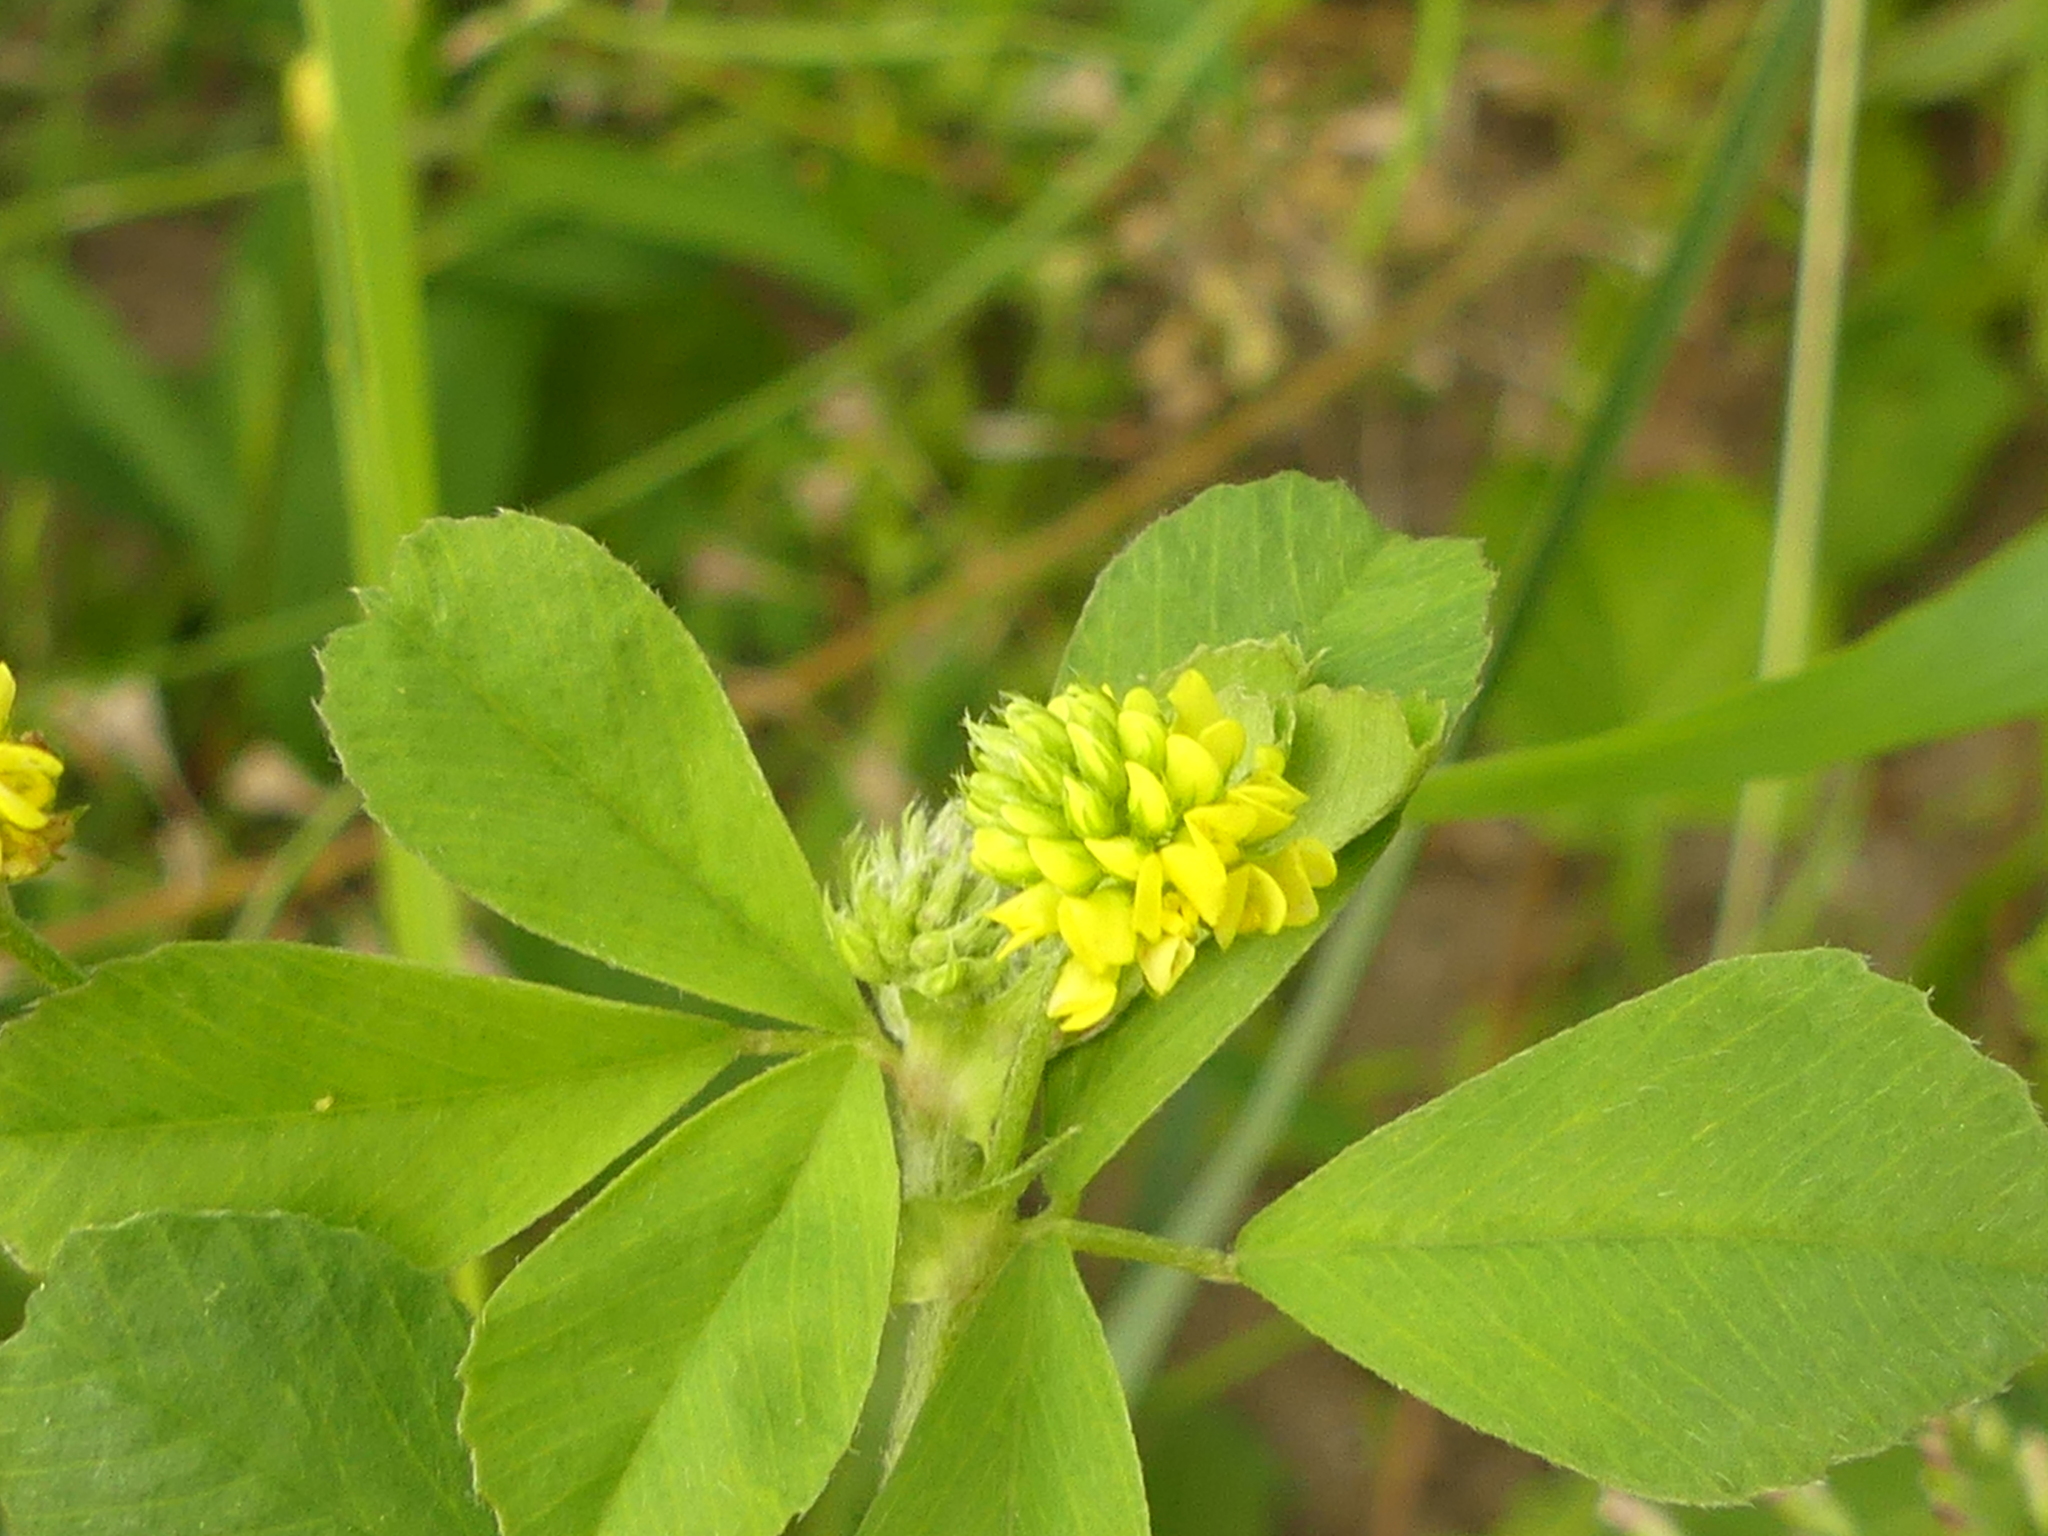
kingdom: Plantae
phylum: Tracheophyta
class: Magnoliopsida
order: Fabales
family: Fabaceae
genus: Medicago
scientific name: Medicago lupulina
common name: Black medick
